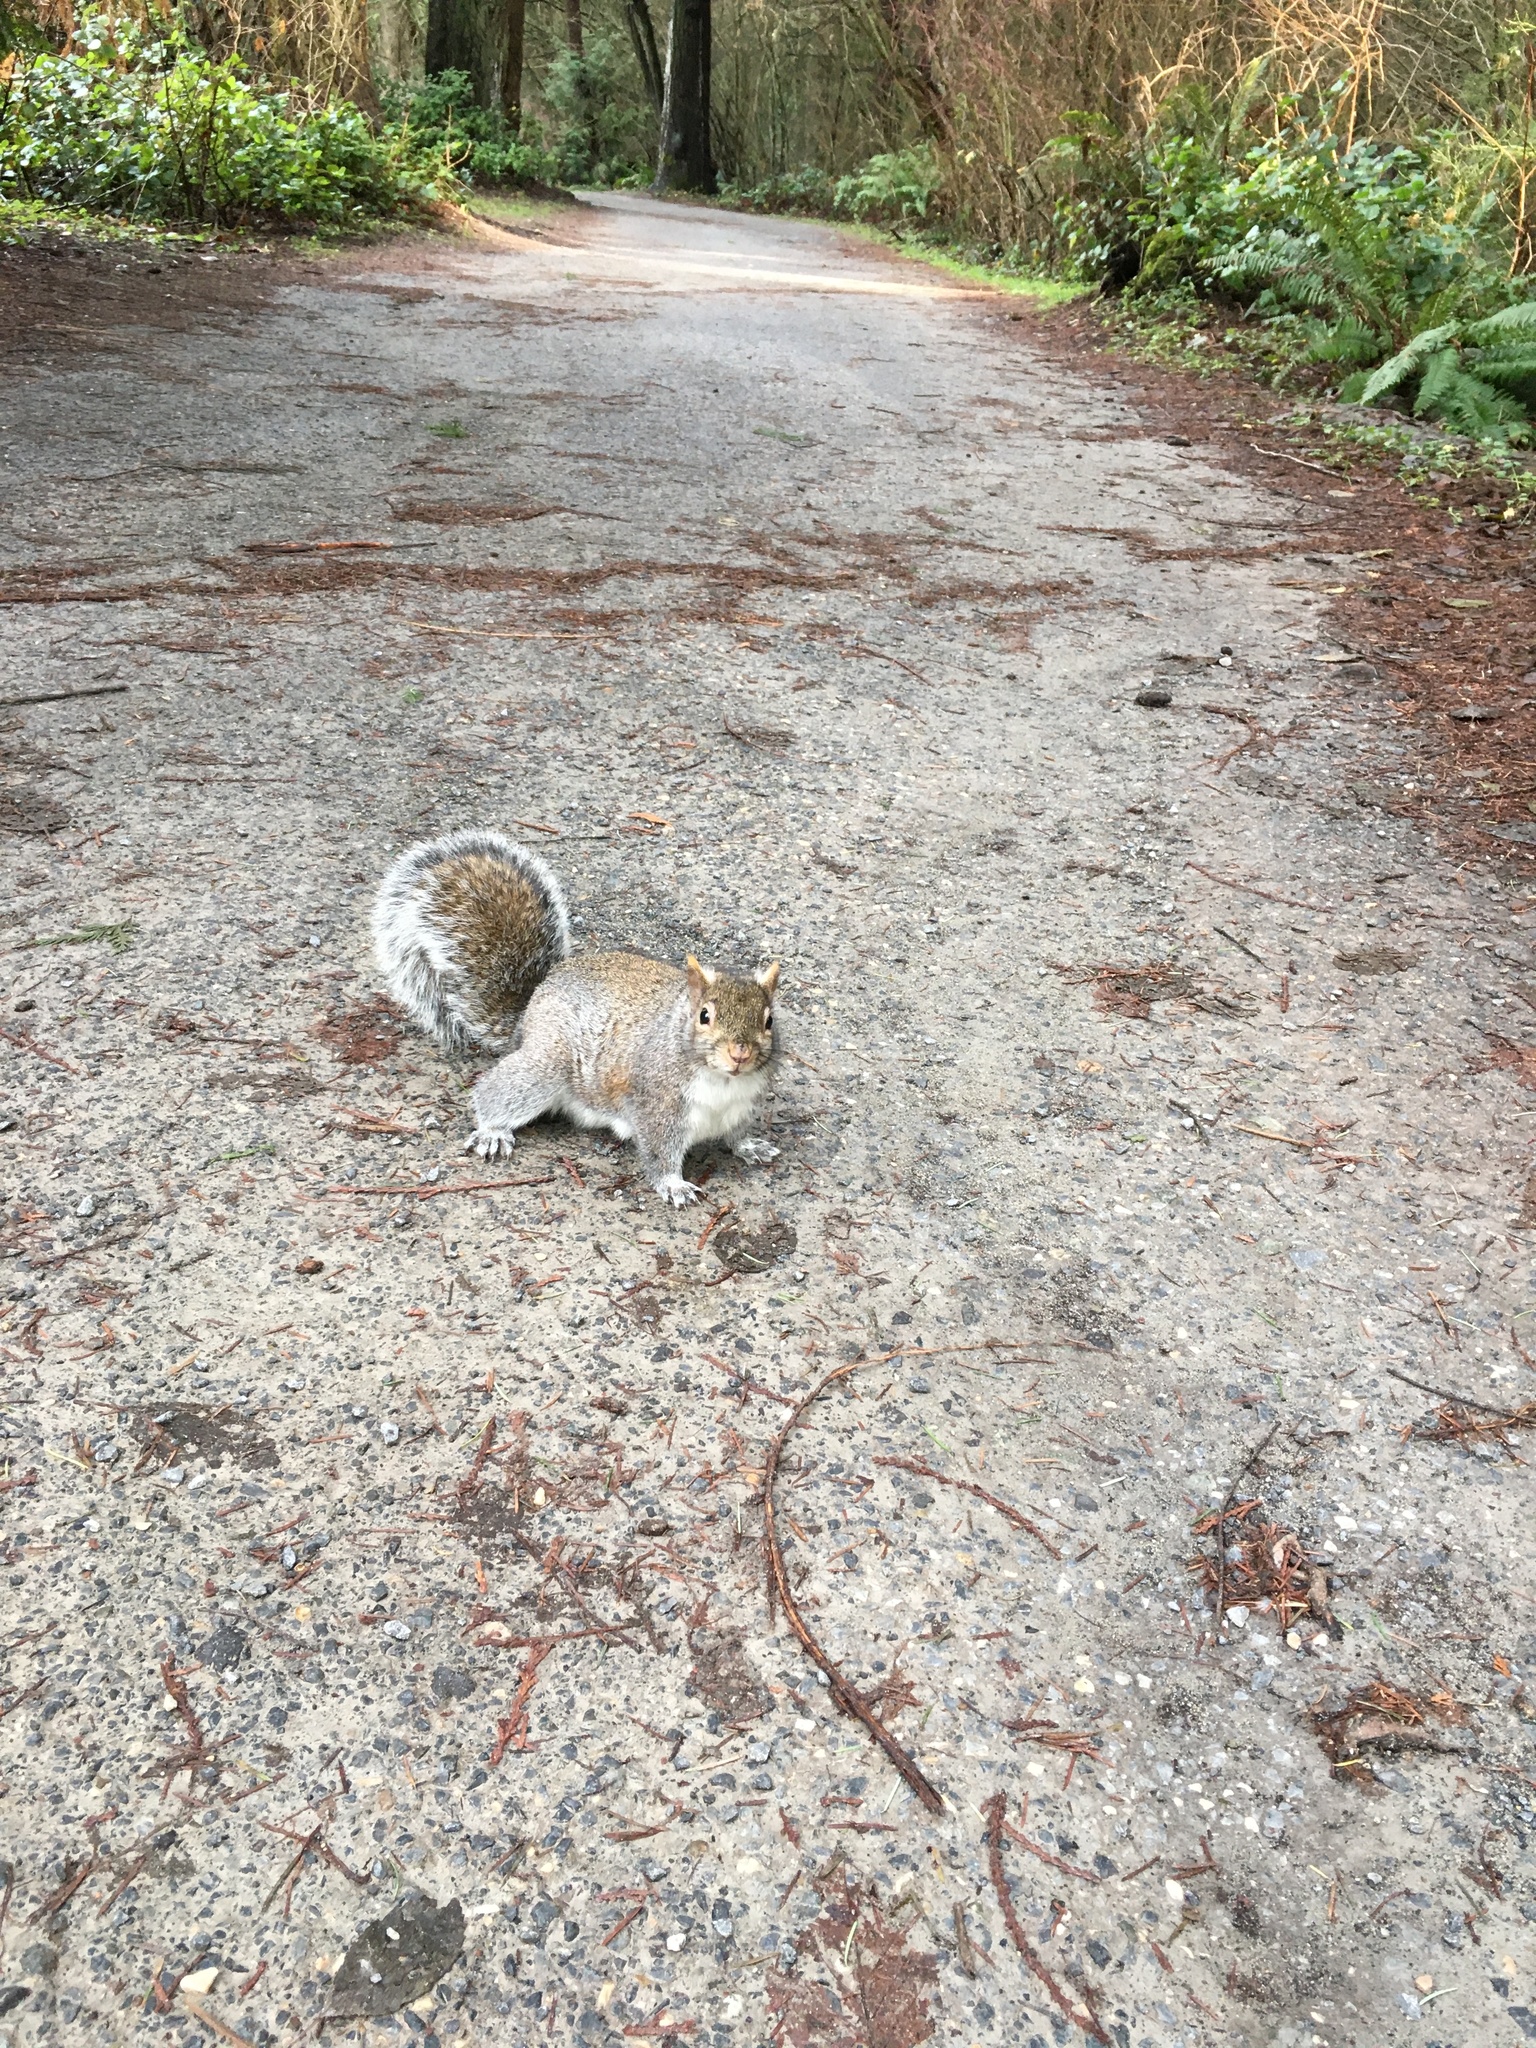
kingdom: Animalia
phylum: Chordata
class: Mammalia
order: Rodentia
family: Sciuridae
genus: Sciurus
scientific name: Sciurus carolinensis
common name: Eastern gray squirrel
